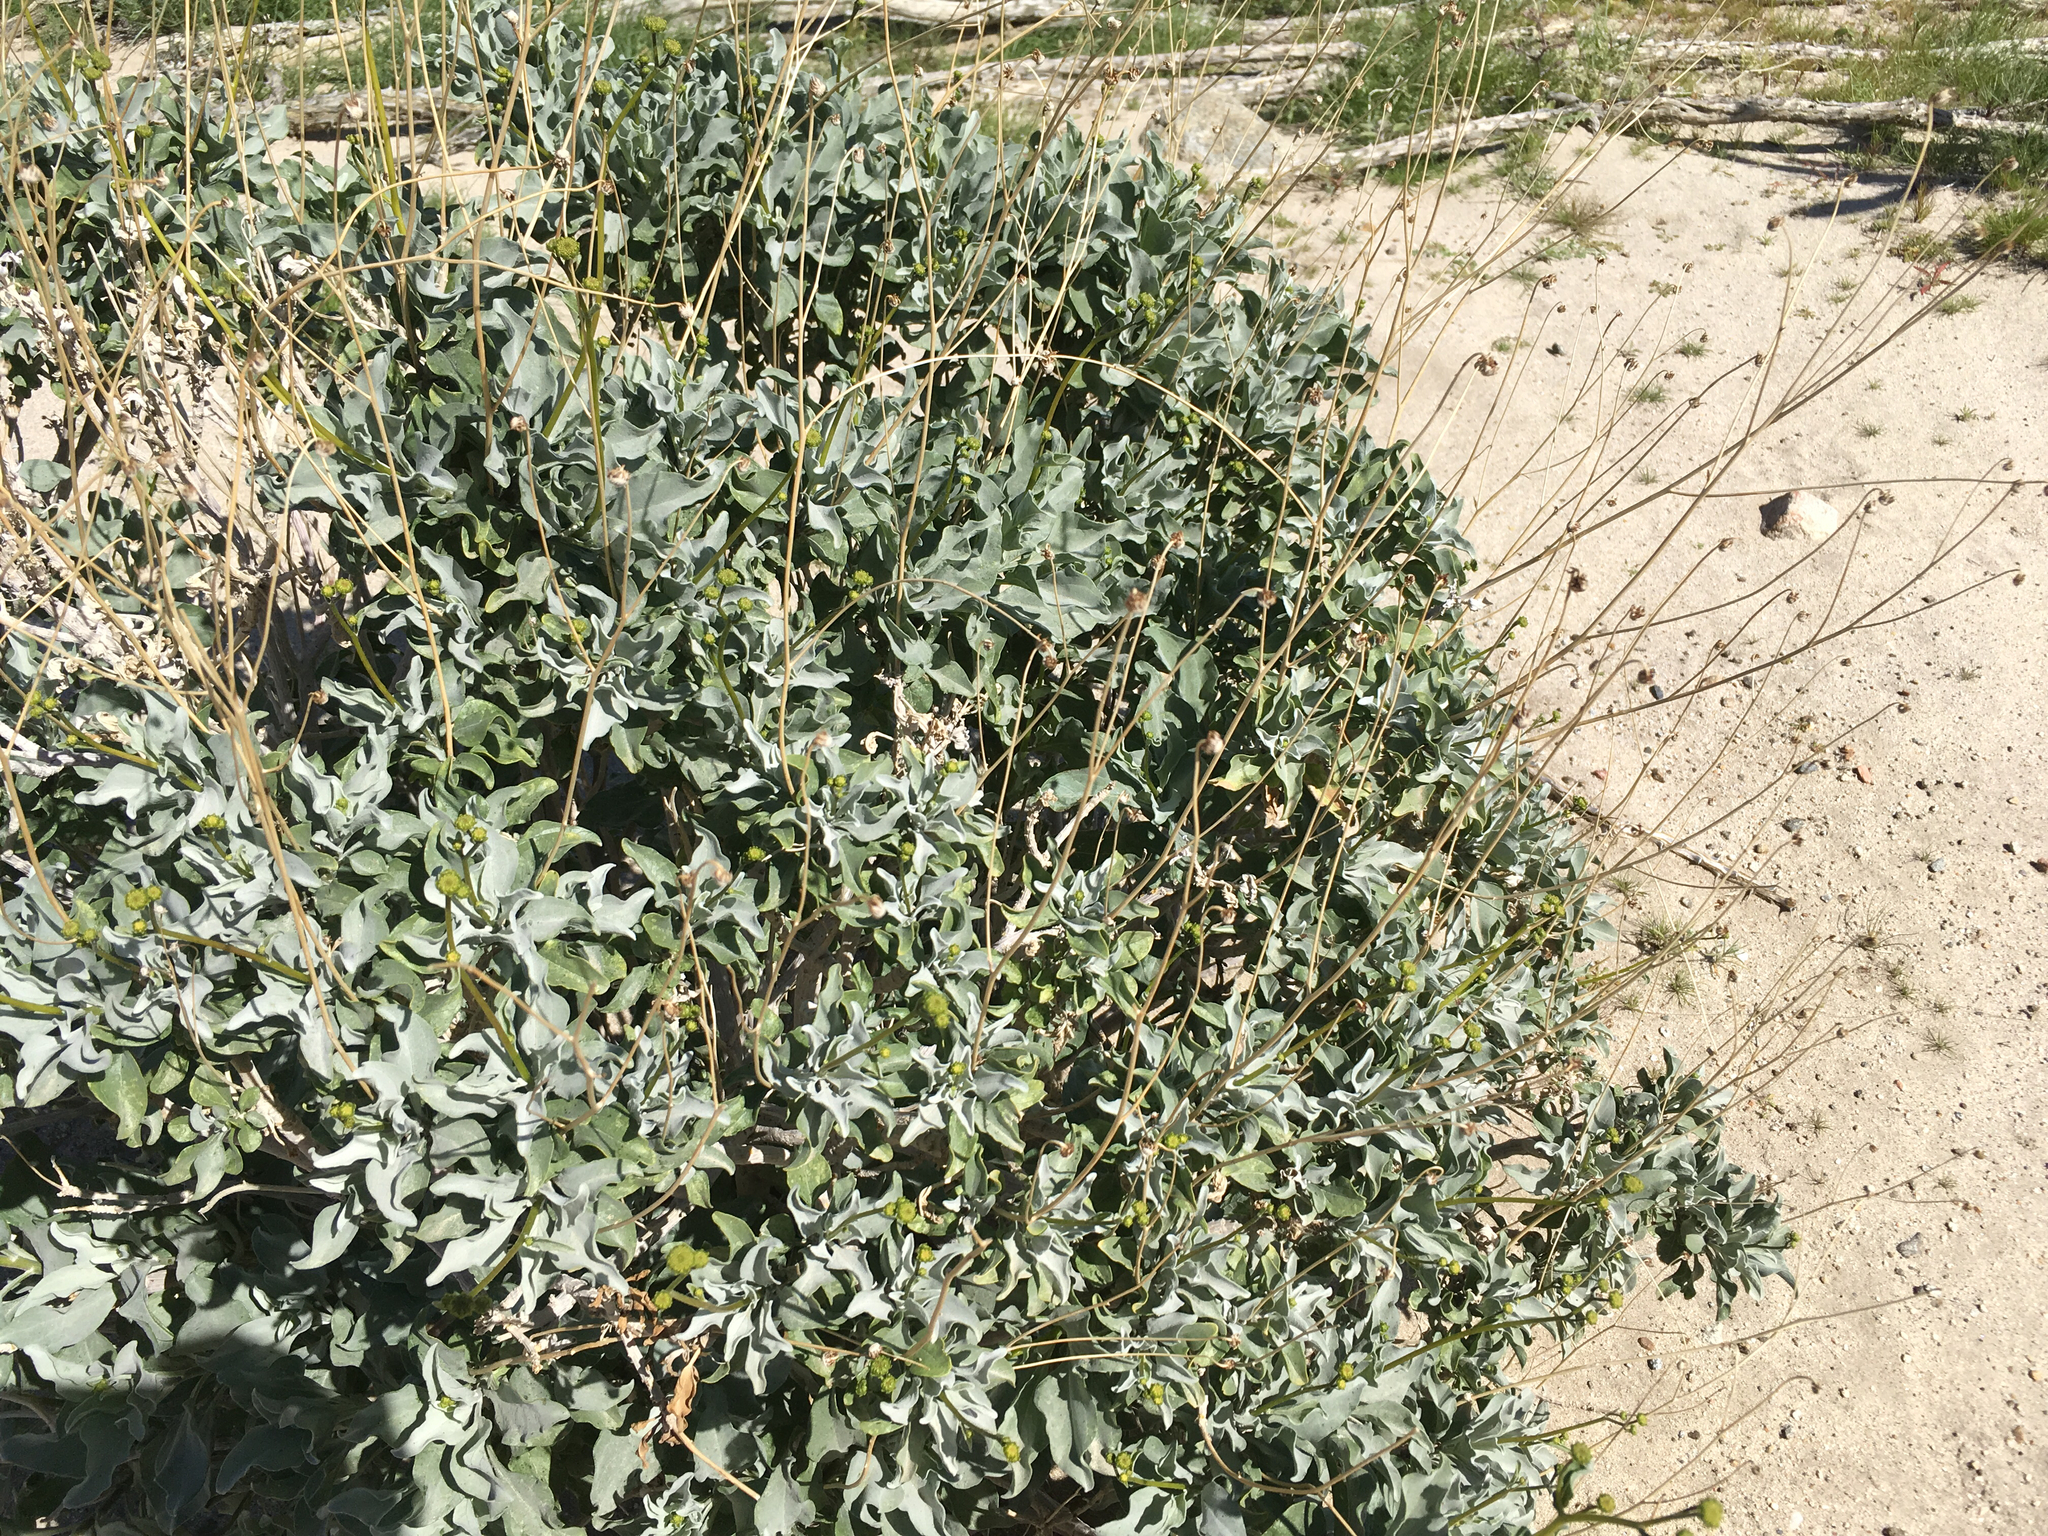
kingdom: Plantae
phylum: Tracheophyta
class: Magnoliopsida
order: Asterales
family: Asteraceae
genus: Encelia
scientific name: Encelia farinosa
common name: Brittlebush
